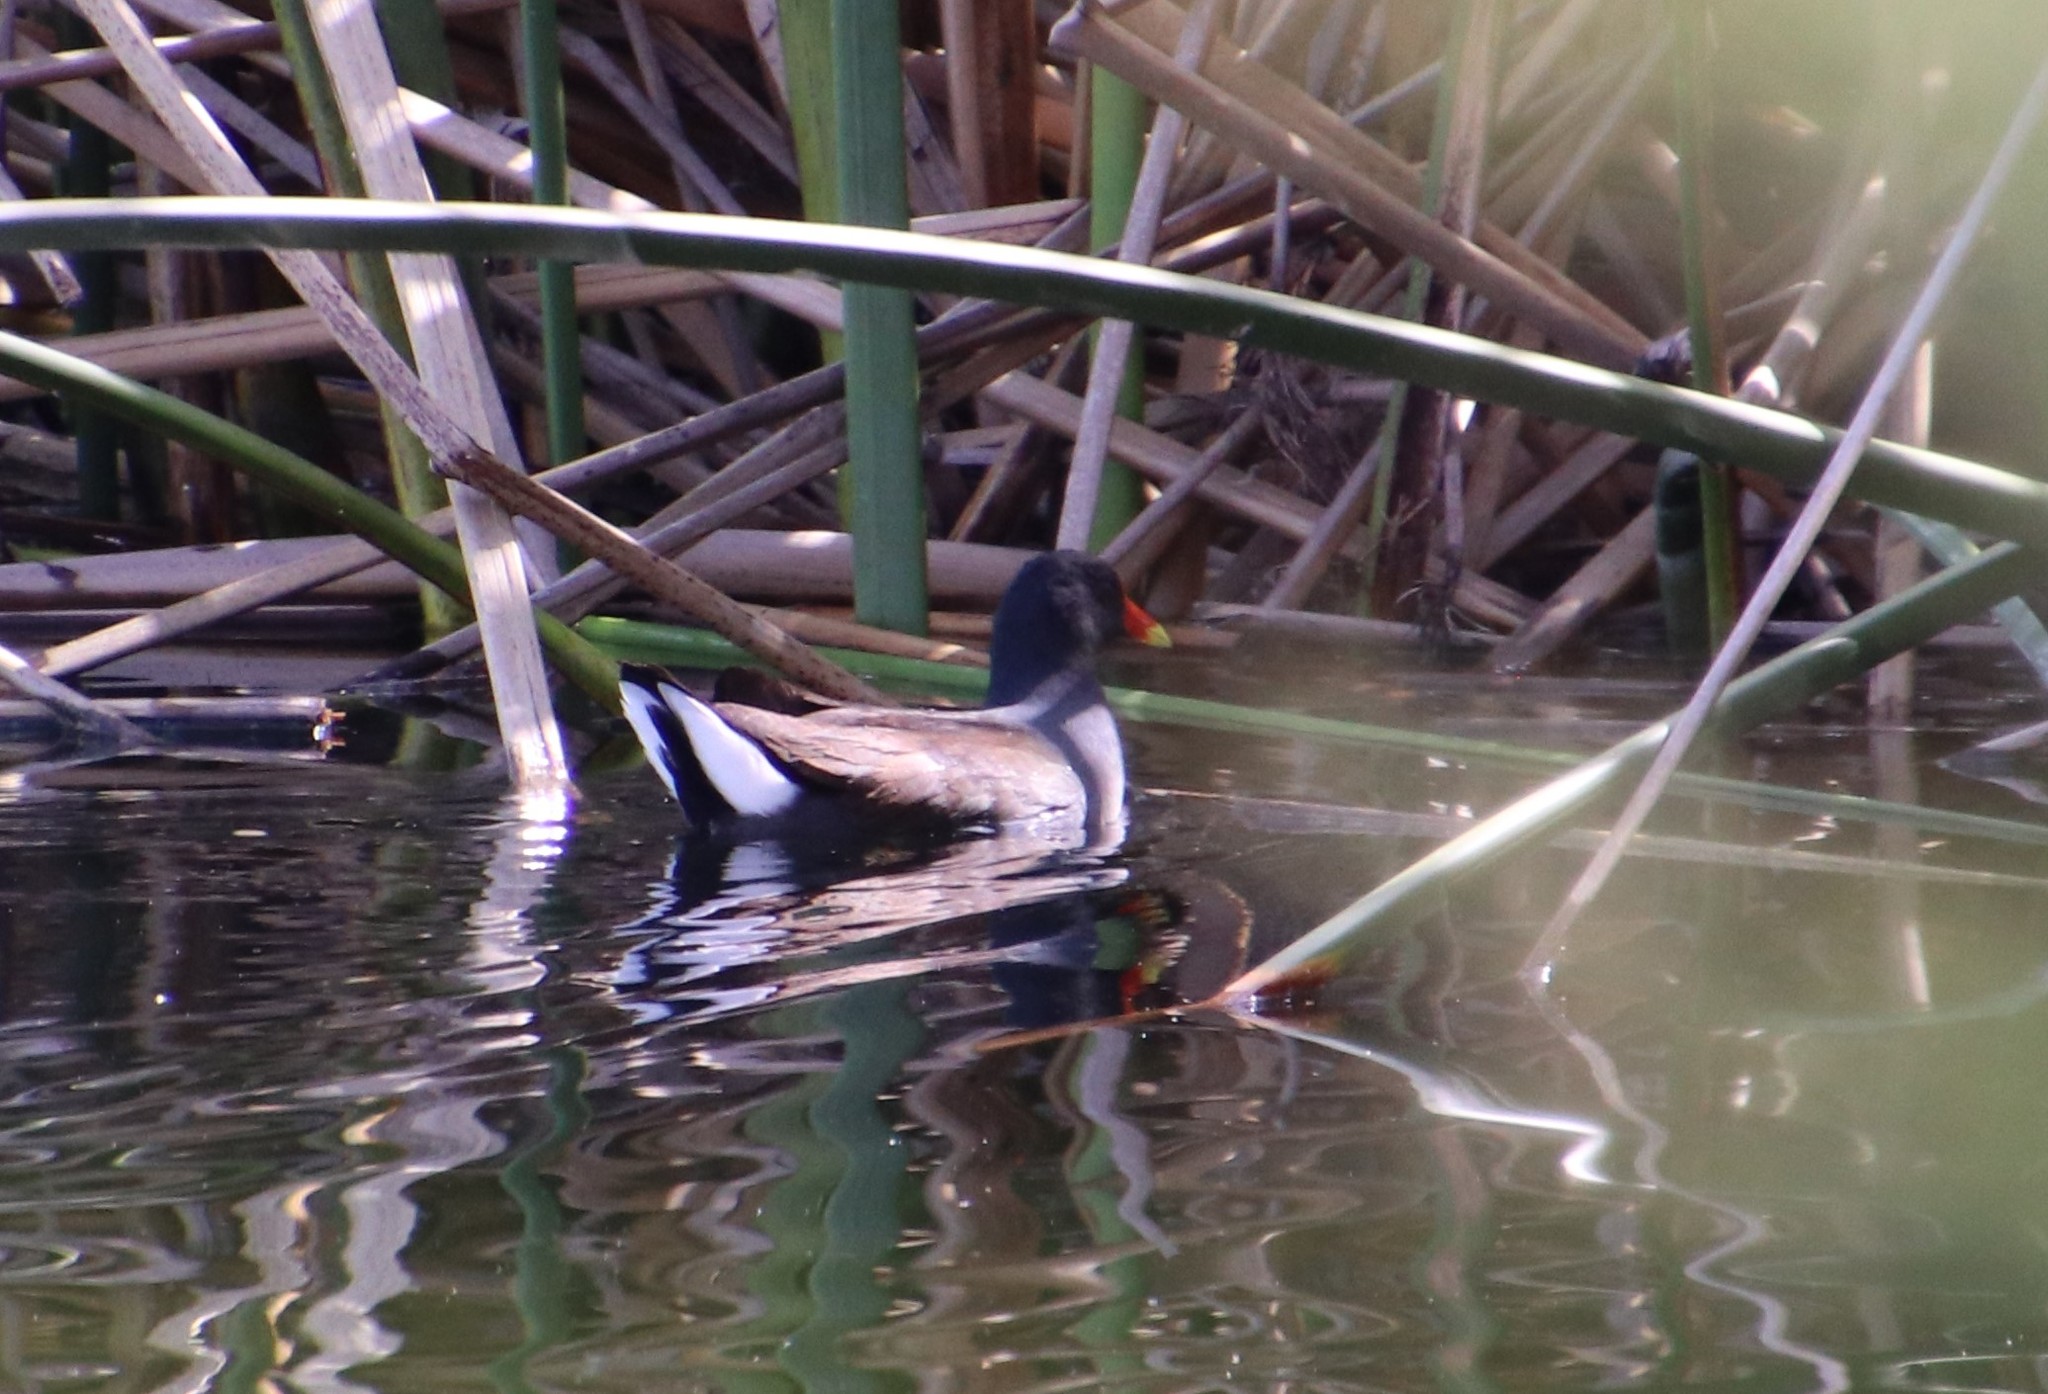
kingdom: Animalia
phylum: Chordata
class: Aves
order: Gruiformes
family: Rallidae
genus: Gallinula
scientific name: Gallinula chloropus
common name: Common moorhen
